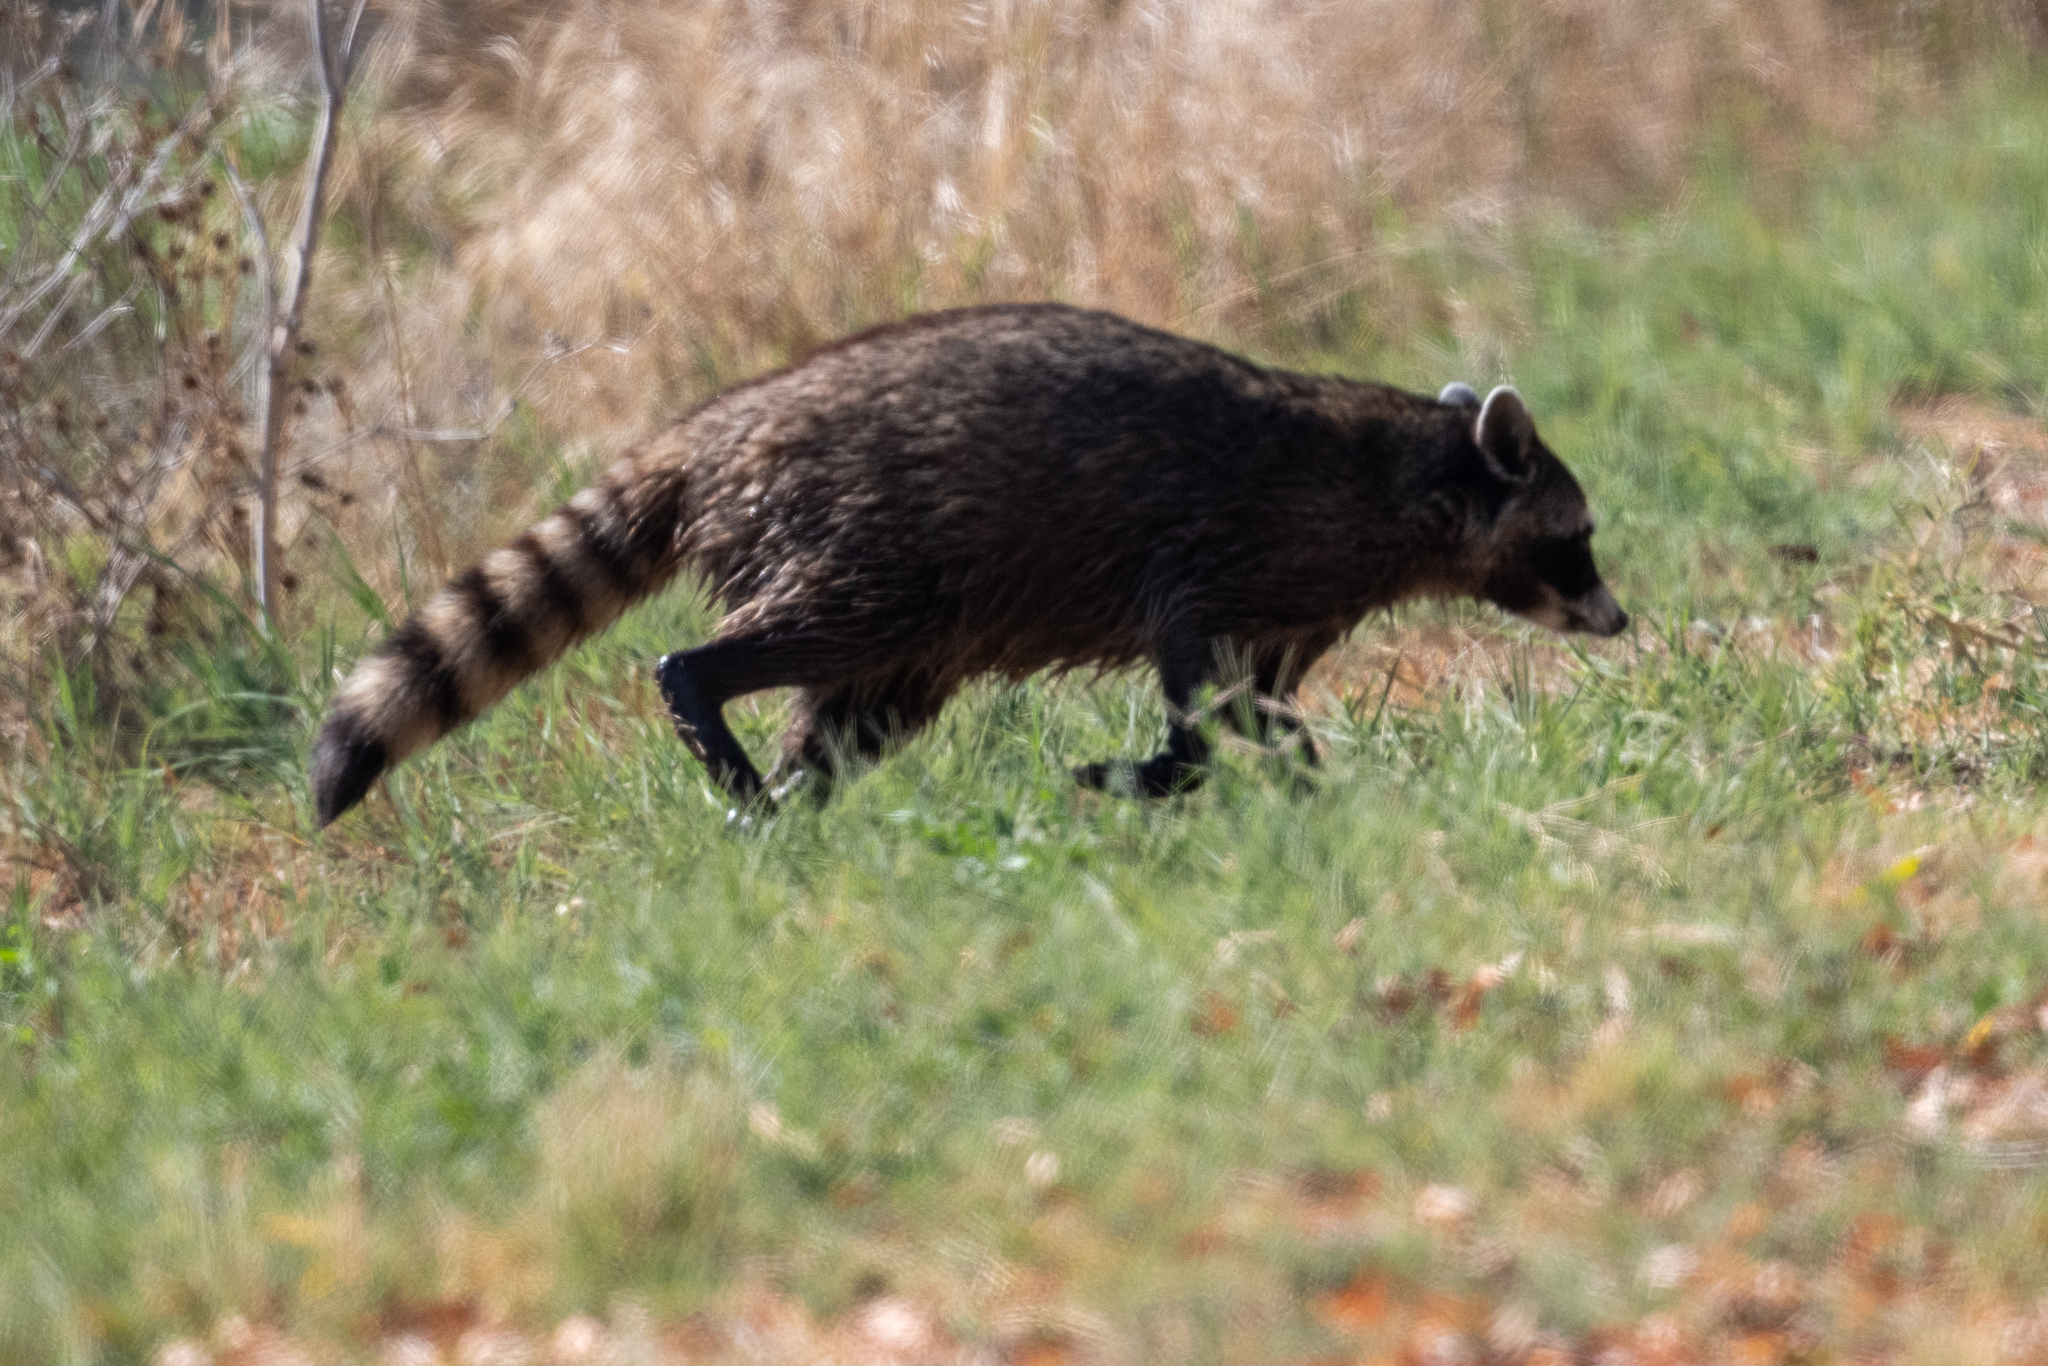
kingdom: Animalia
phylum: Chordata
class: Mammalia
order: Carnivora
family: Procyonidae
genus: Procyon
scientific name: Procyon lotor
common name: Raccoon
